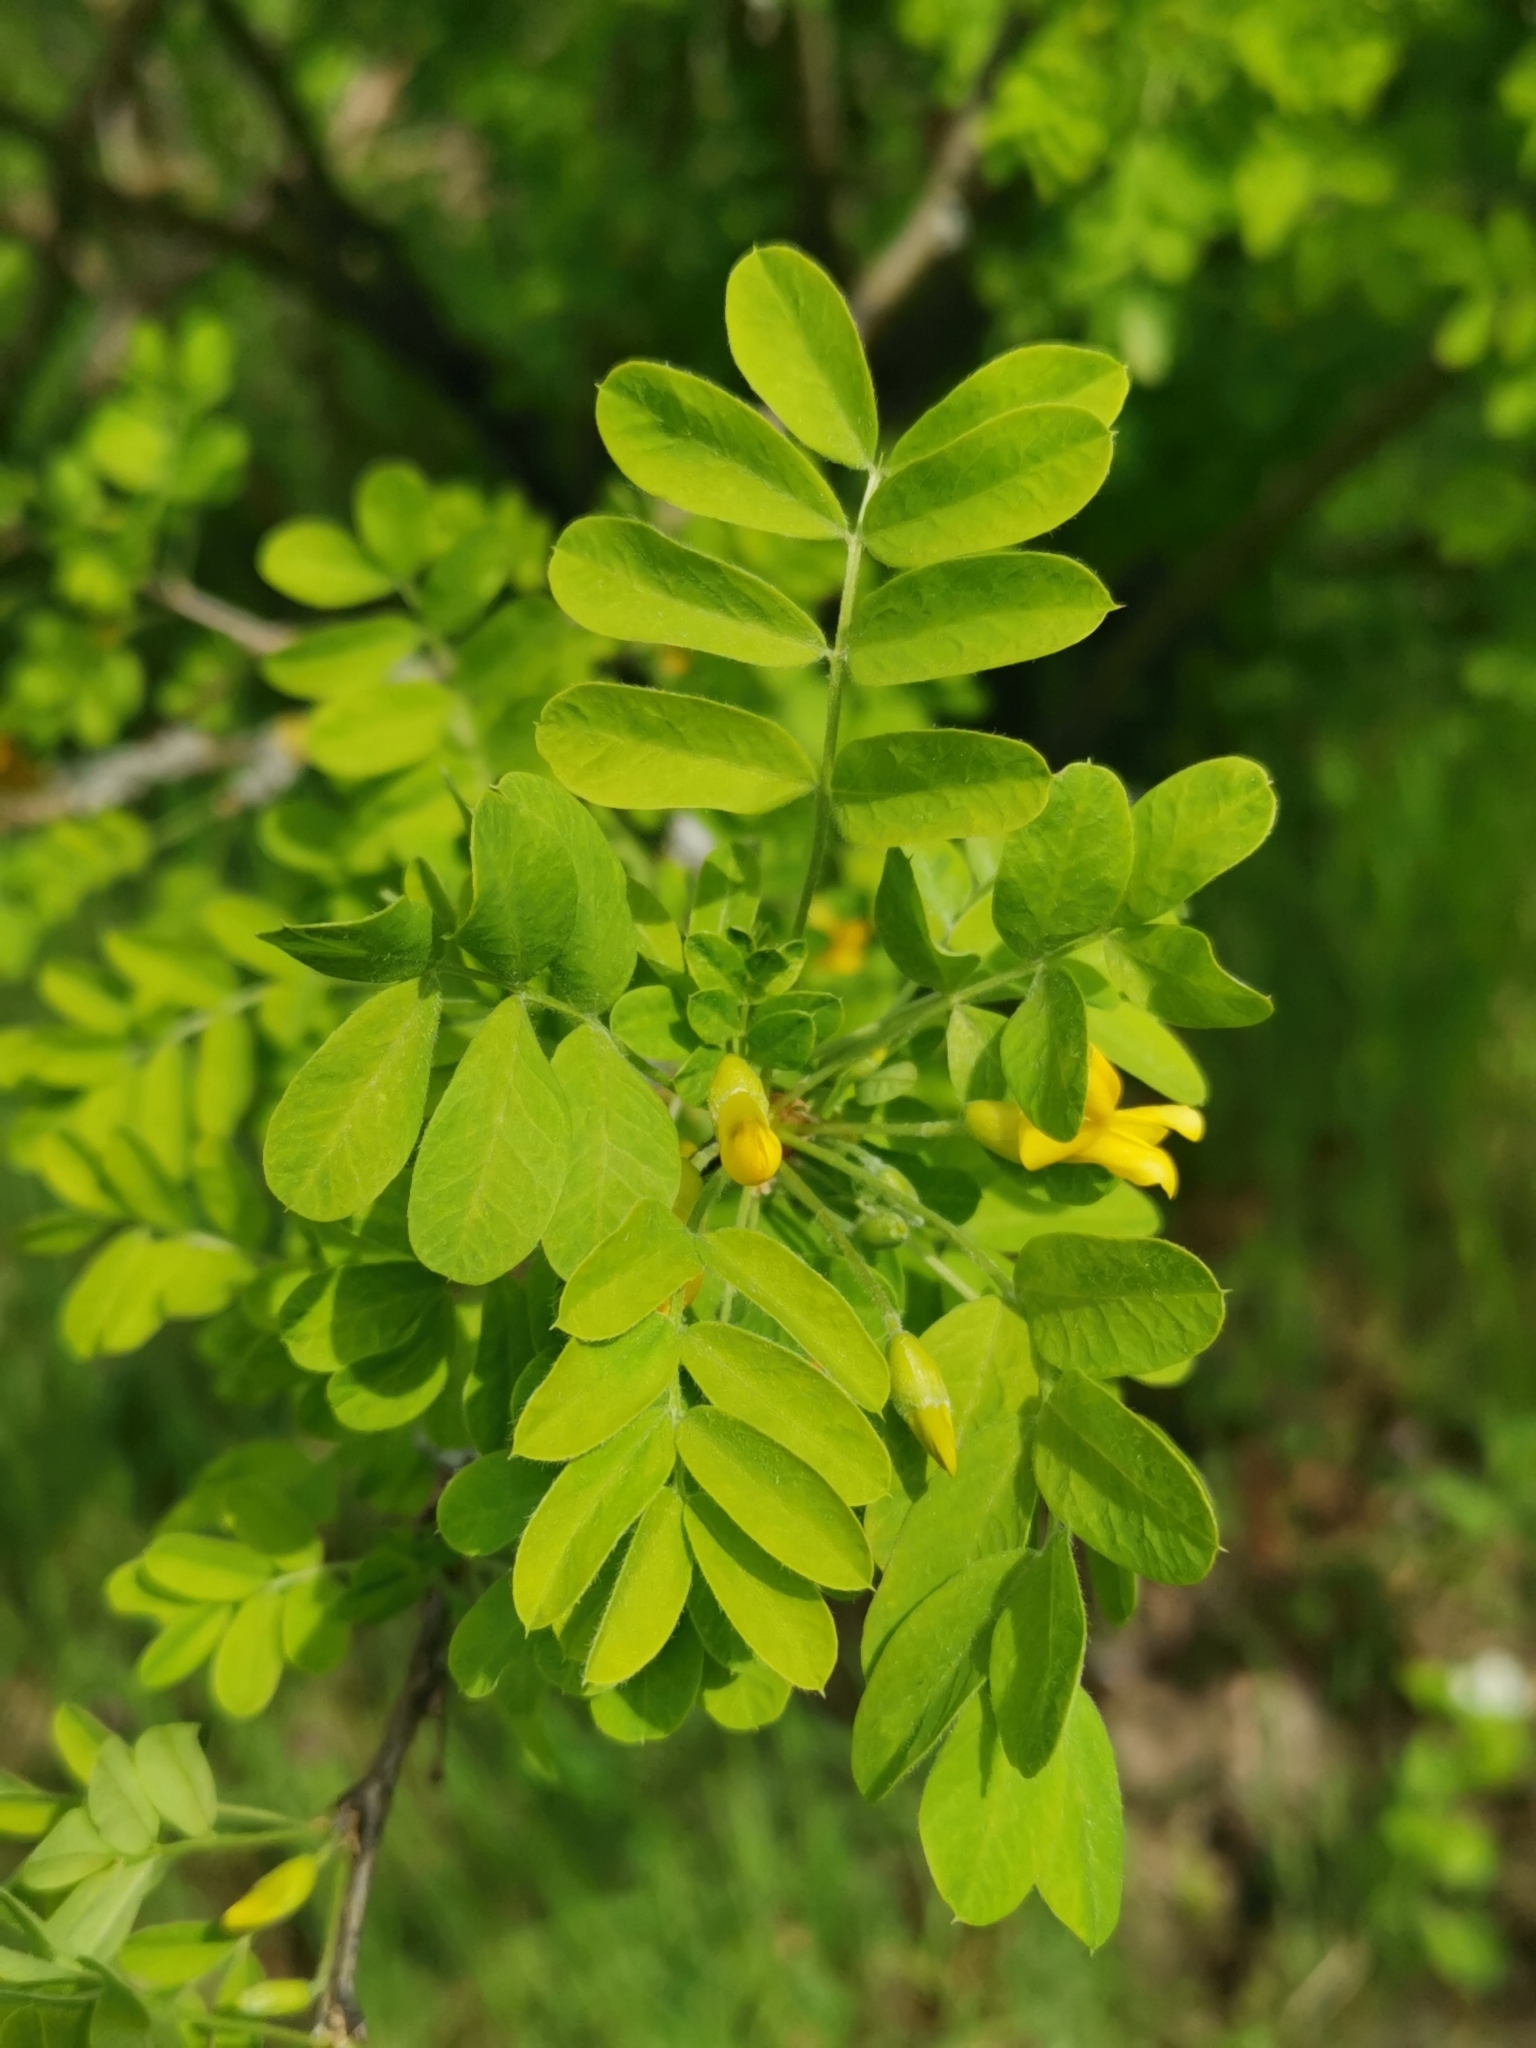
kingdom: Plantae
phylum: Tracheophyta
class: Magnoliopsida
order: Fabales
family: Fabaceae
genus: Caragana
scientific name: Caragana arborescens
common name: Siberian peashrub
